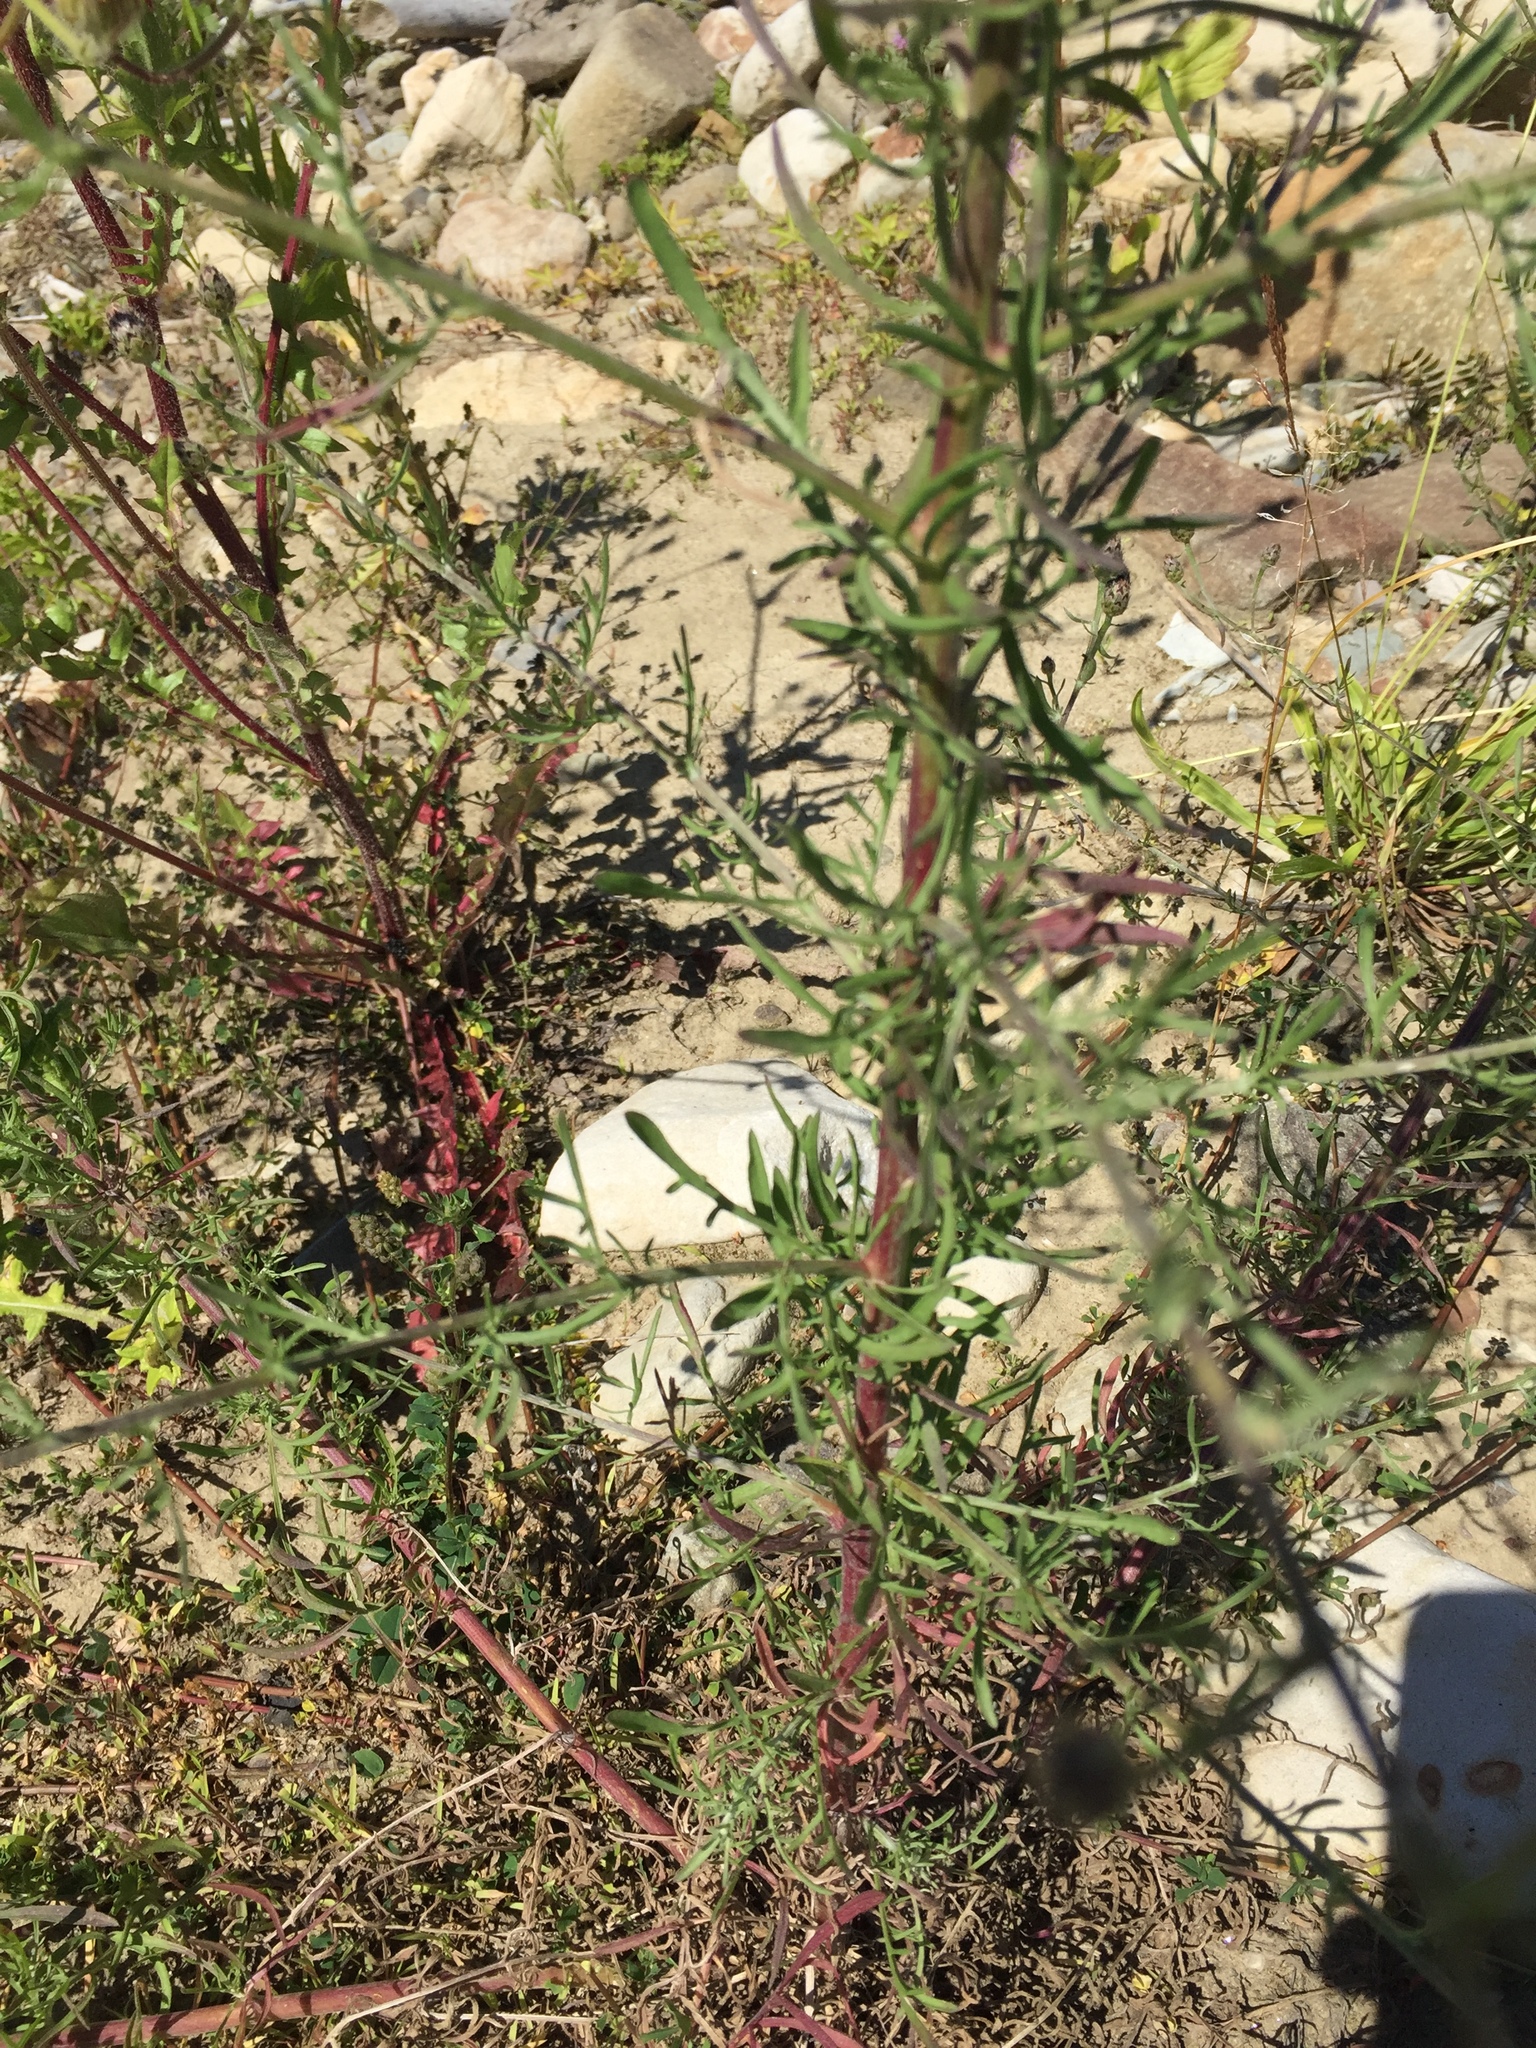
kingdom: Plantae
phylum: Tracheophyta
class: Magnoliopsida
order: Asterales
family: Asteraceae
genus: Centaurea
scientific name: Centaurea stoebe
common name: Spotted knapweed
